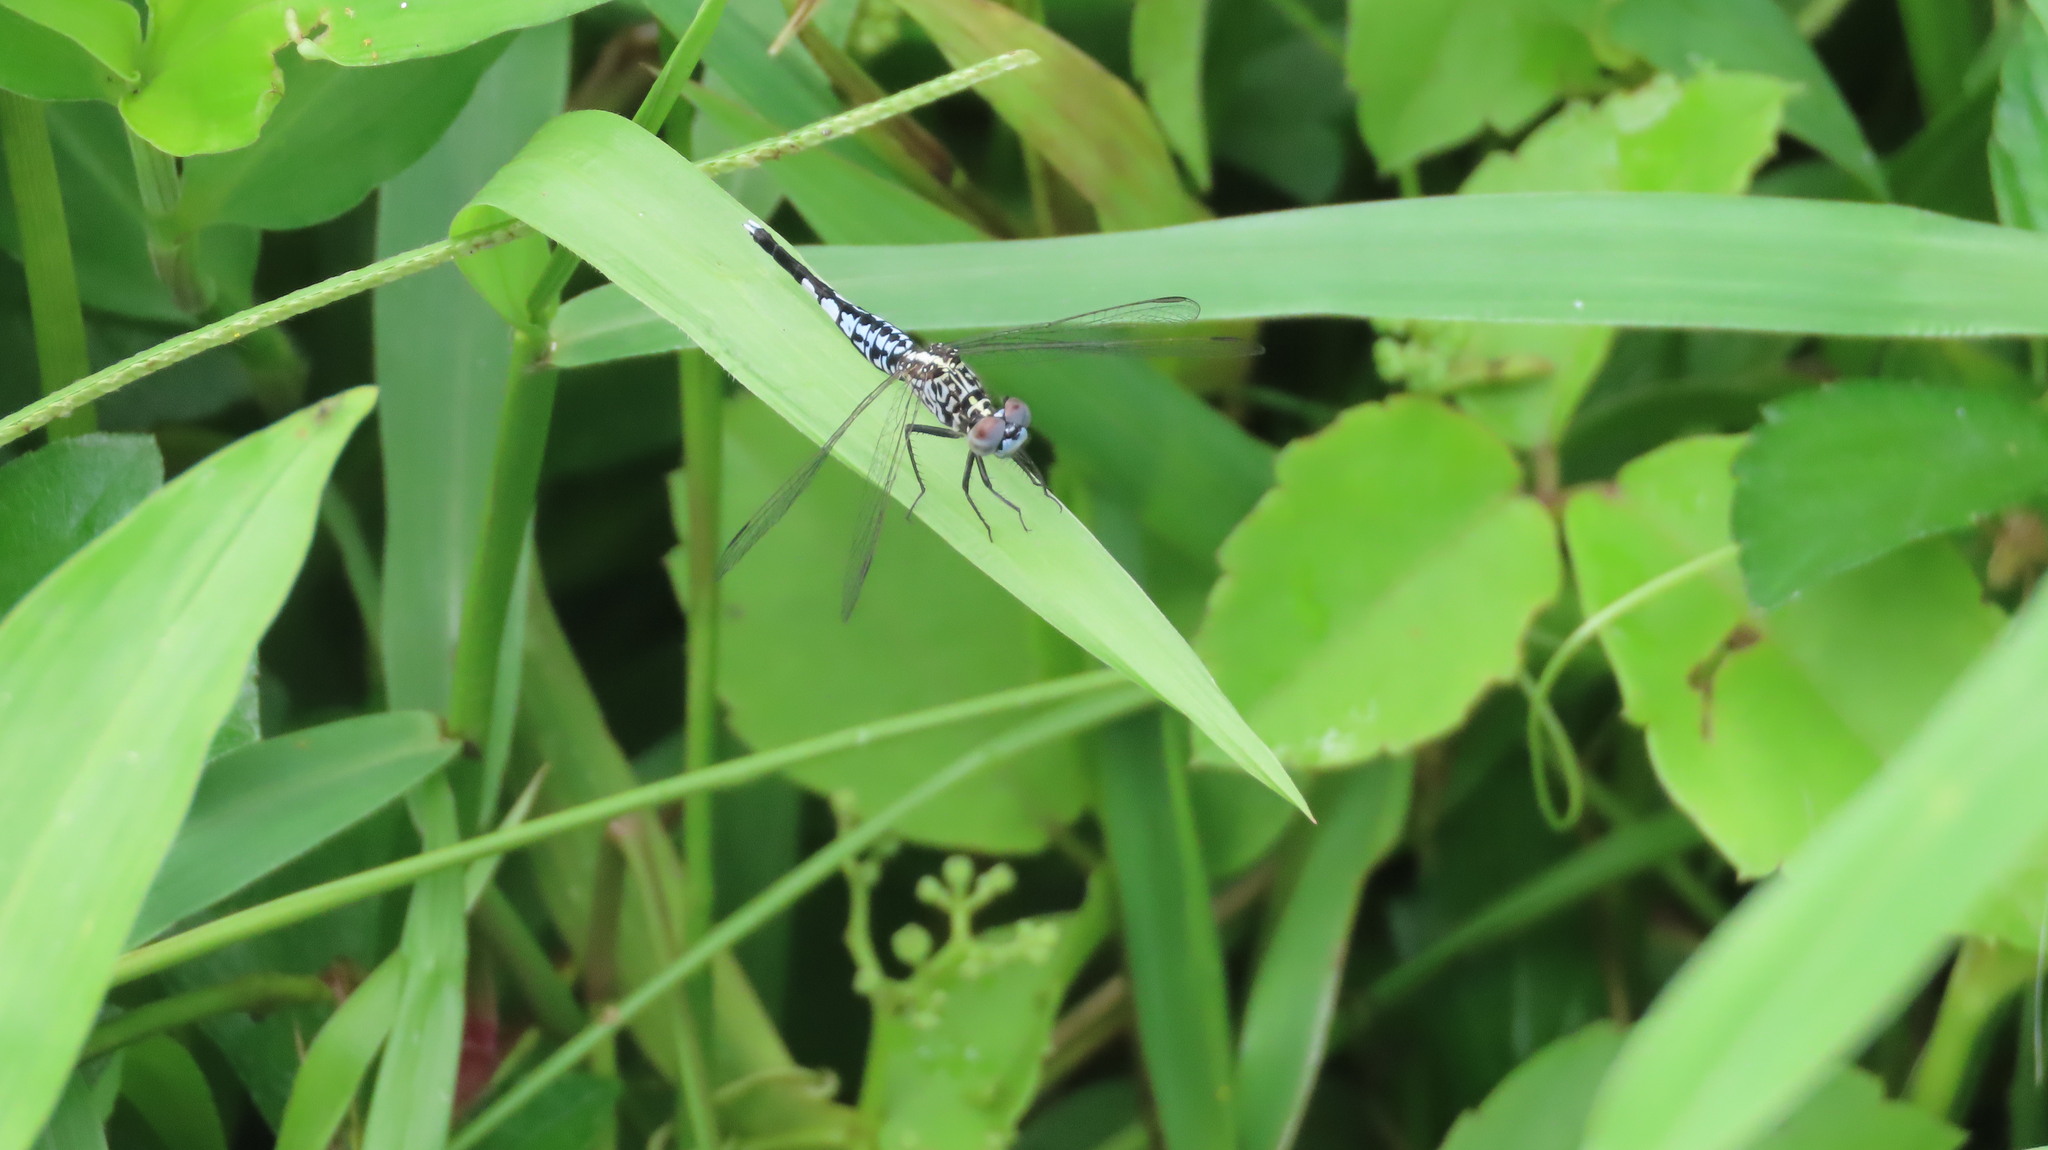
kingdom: Animalia
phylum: Arthropoda
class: Insecta
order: Odonata
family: Libellulidae
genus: Acisoma
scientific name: Acisoma panorpoides
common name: Asian pintail
